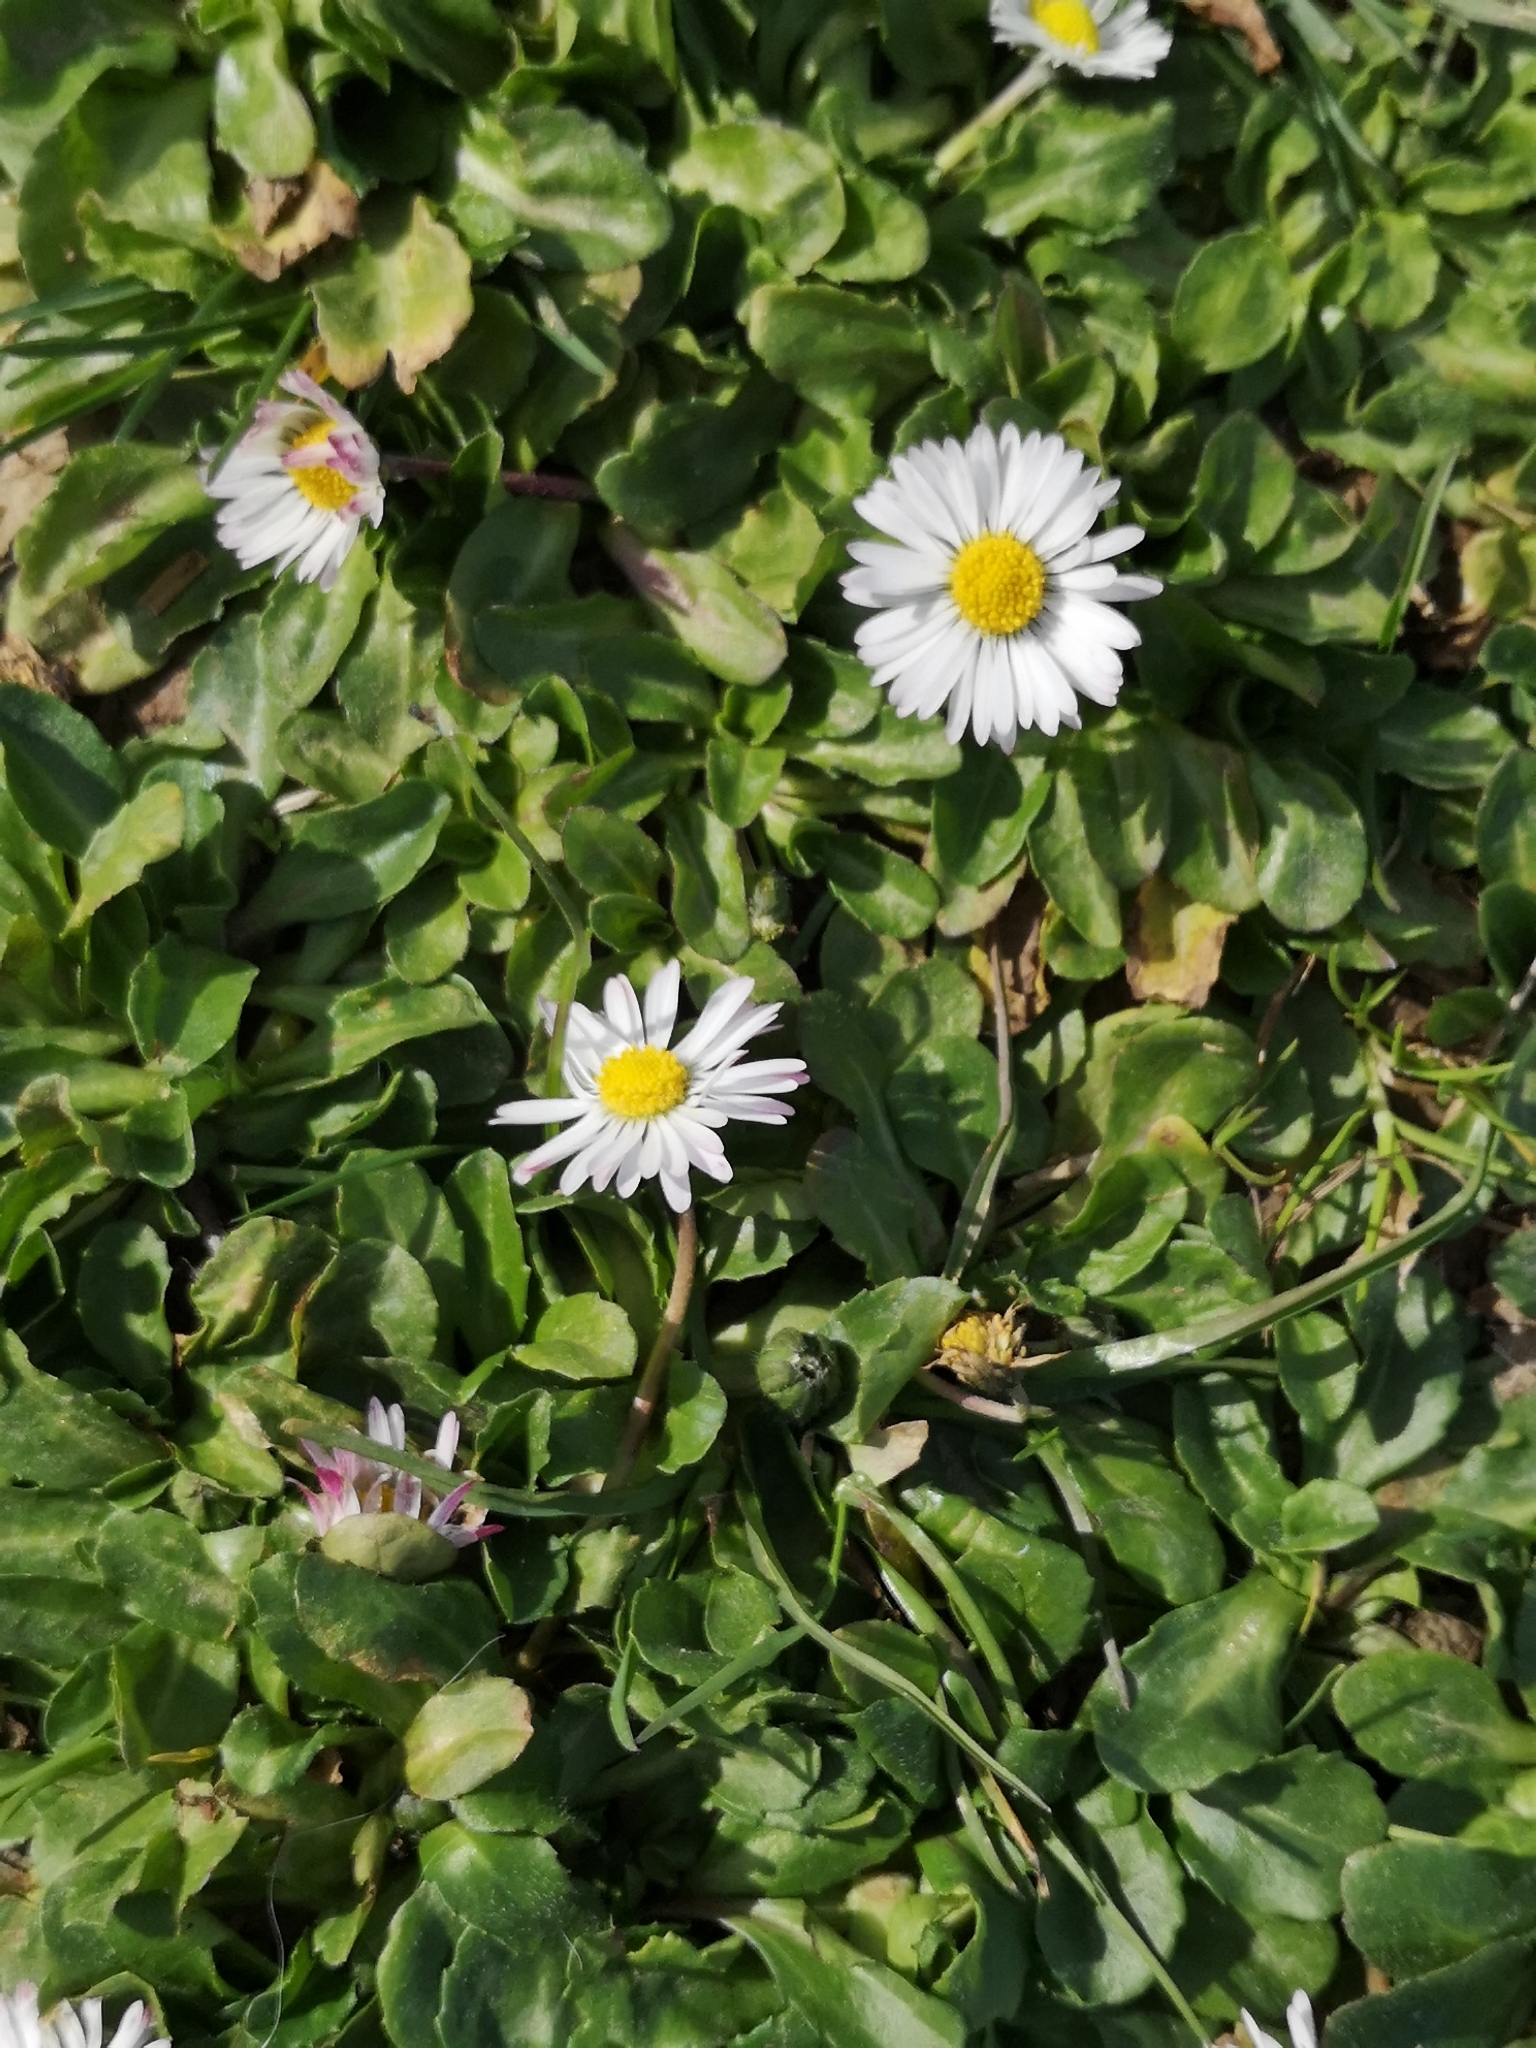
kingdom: Plantae
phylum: Tracheophyta
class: Magnoliopsida
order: Asterales
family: Asteraceae
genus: Bellis
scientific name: Bellis perennis
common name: Lawndaisy
